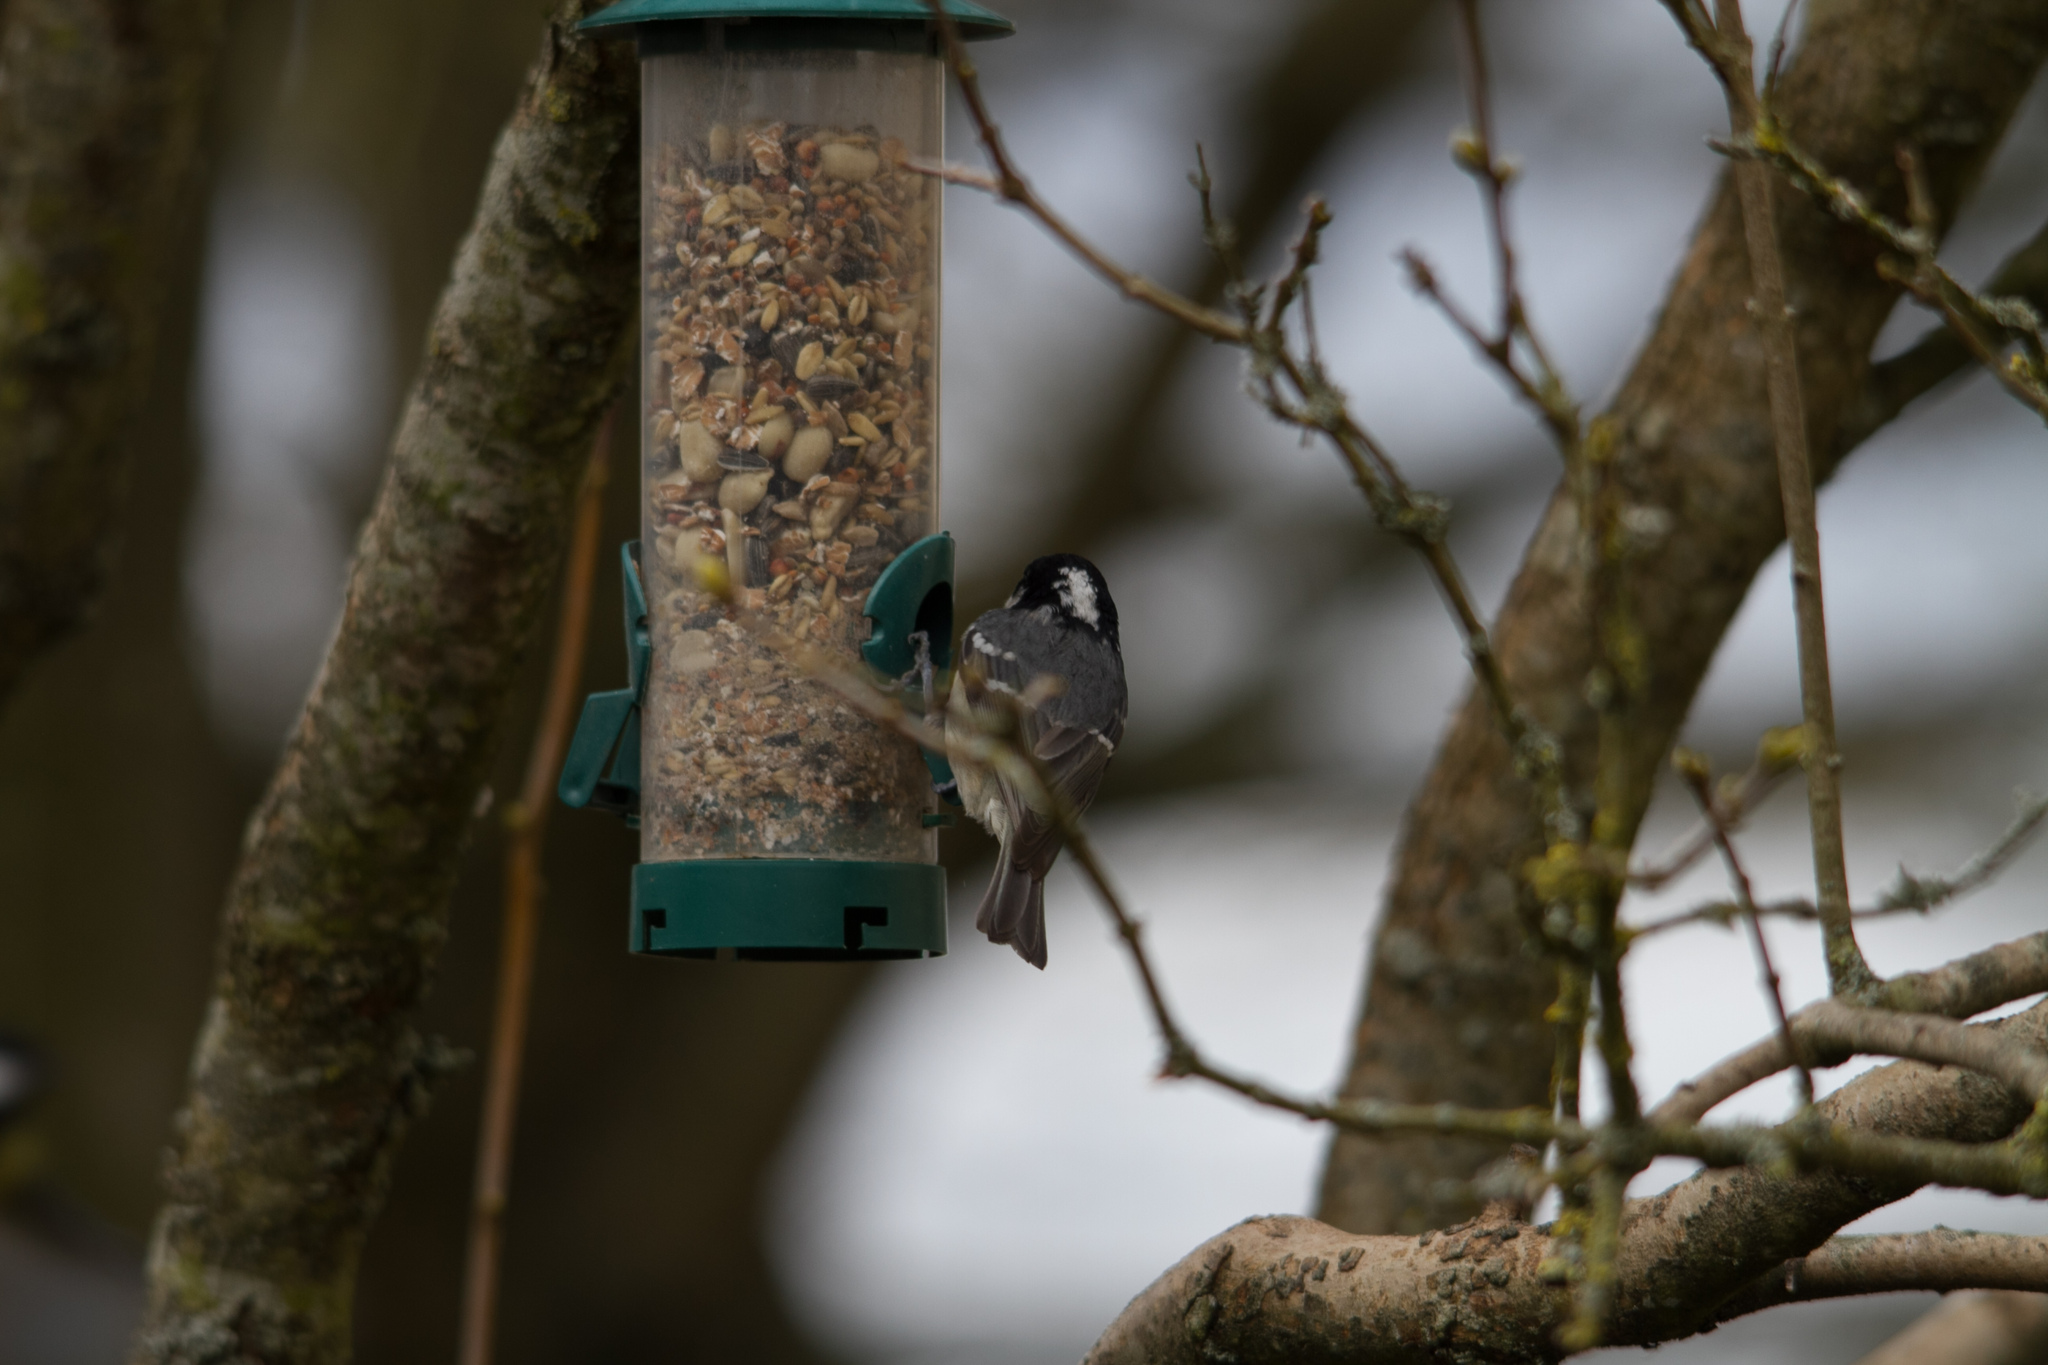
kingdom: Animalia
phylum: Chordata
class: Aves
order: Passeriformes
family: Paridae
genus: Periparus
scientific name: Periparus ater
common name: Coal tit
